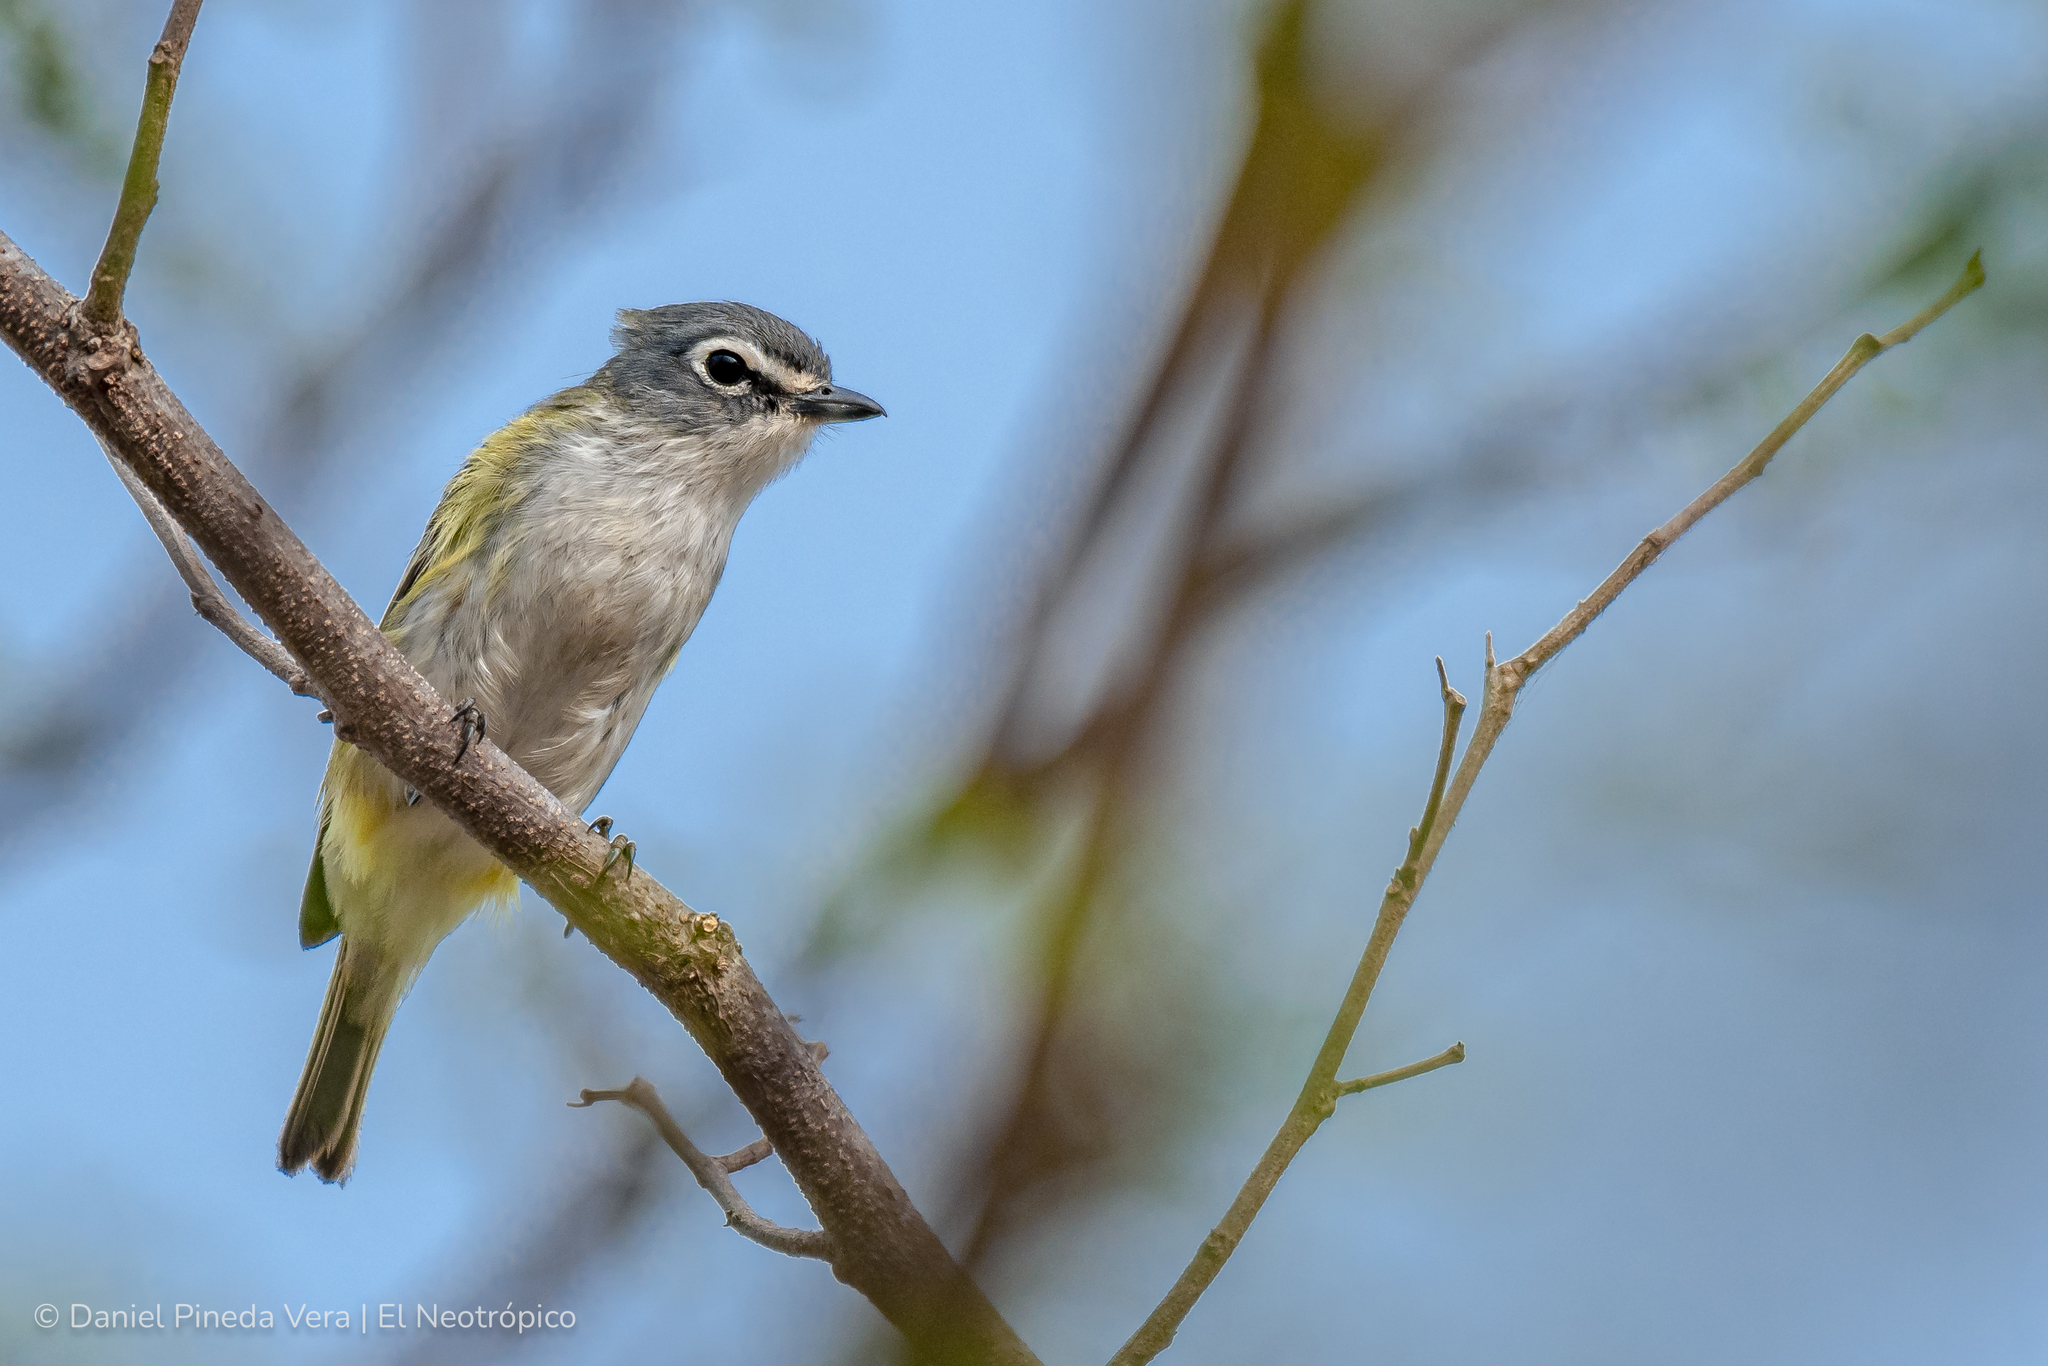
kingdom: Animalia
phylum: Chordata
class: Aves
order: Passeriformes
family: Vireonidae
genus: Vireo
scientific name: Vireo solitarius
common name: Blue-headed vireo
